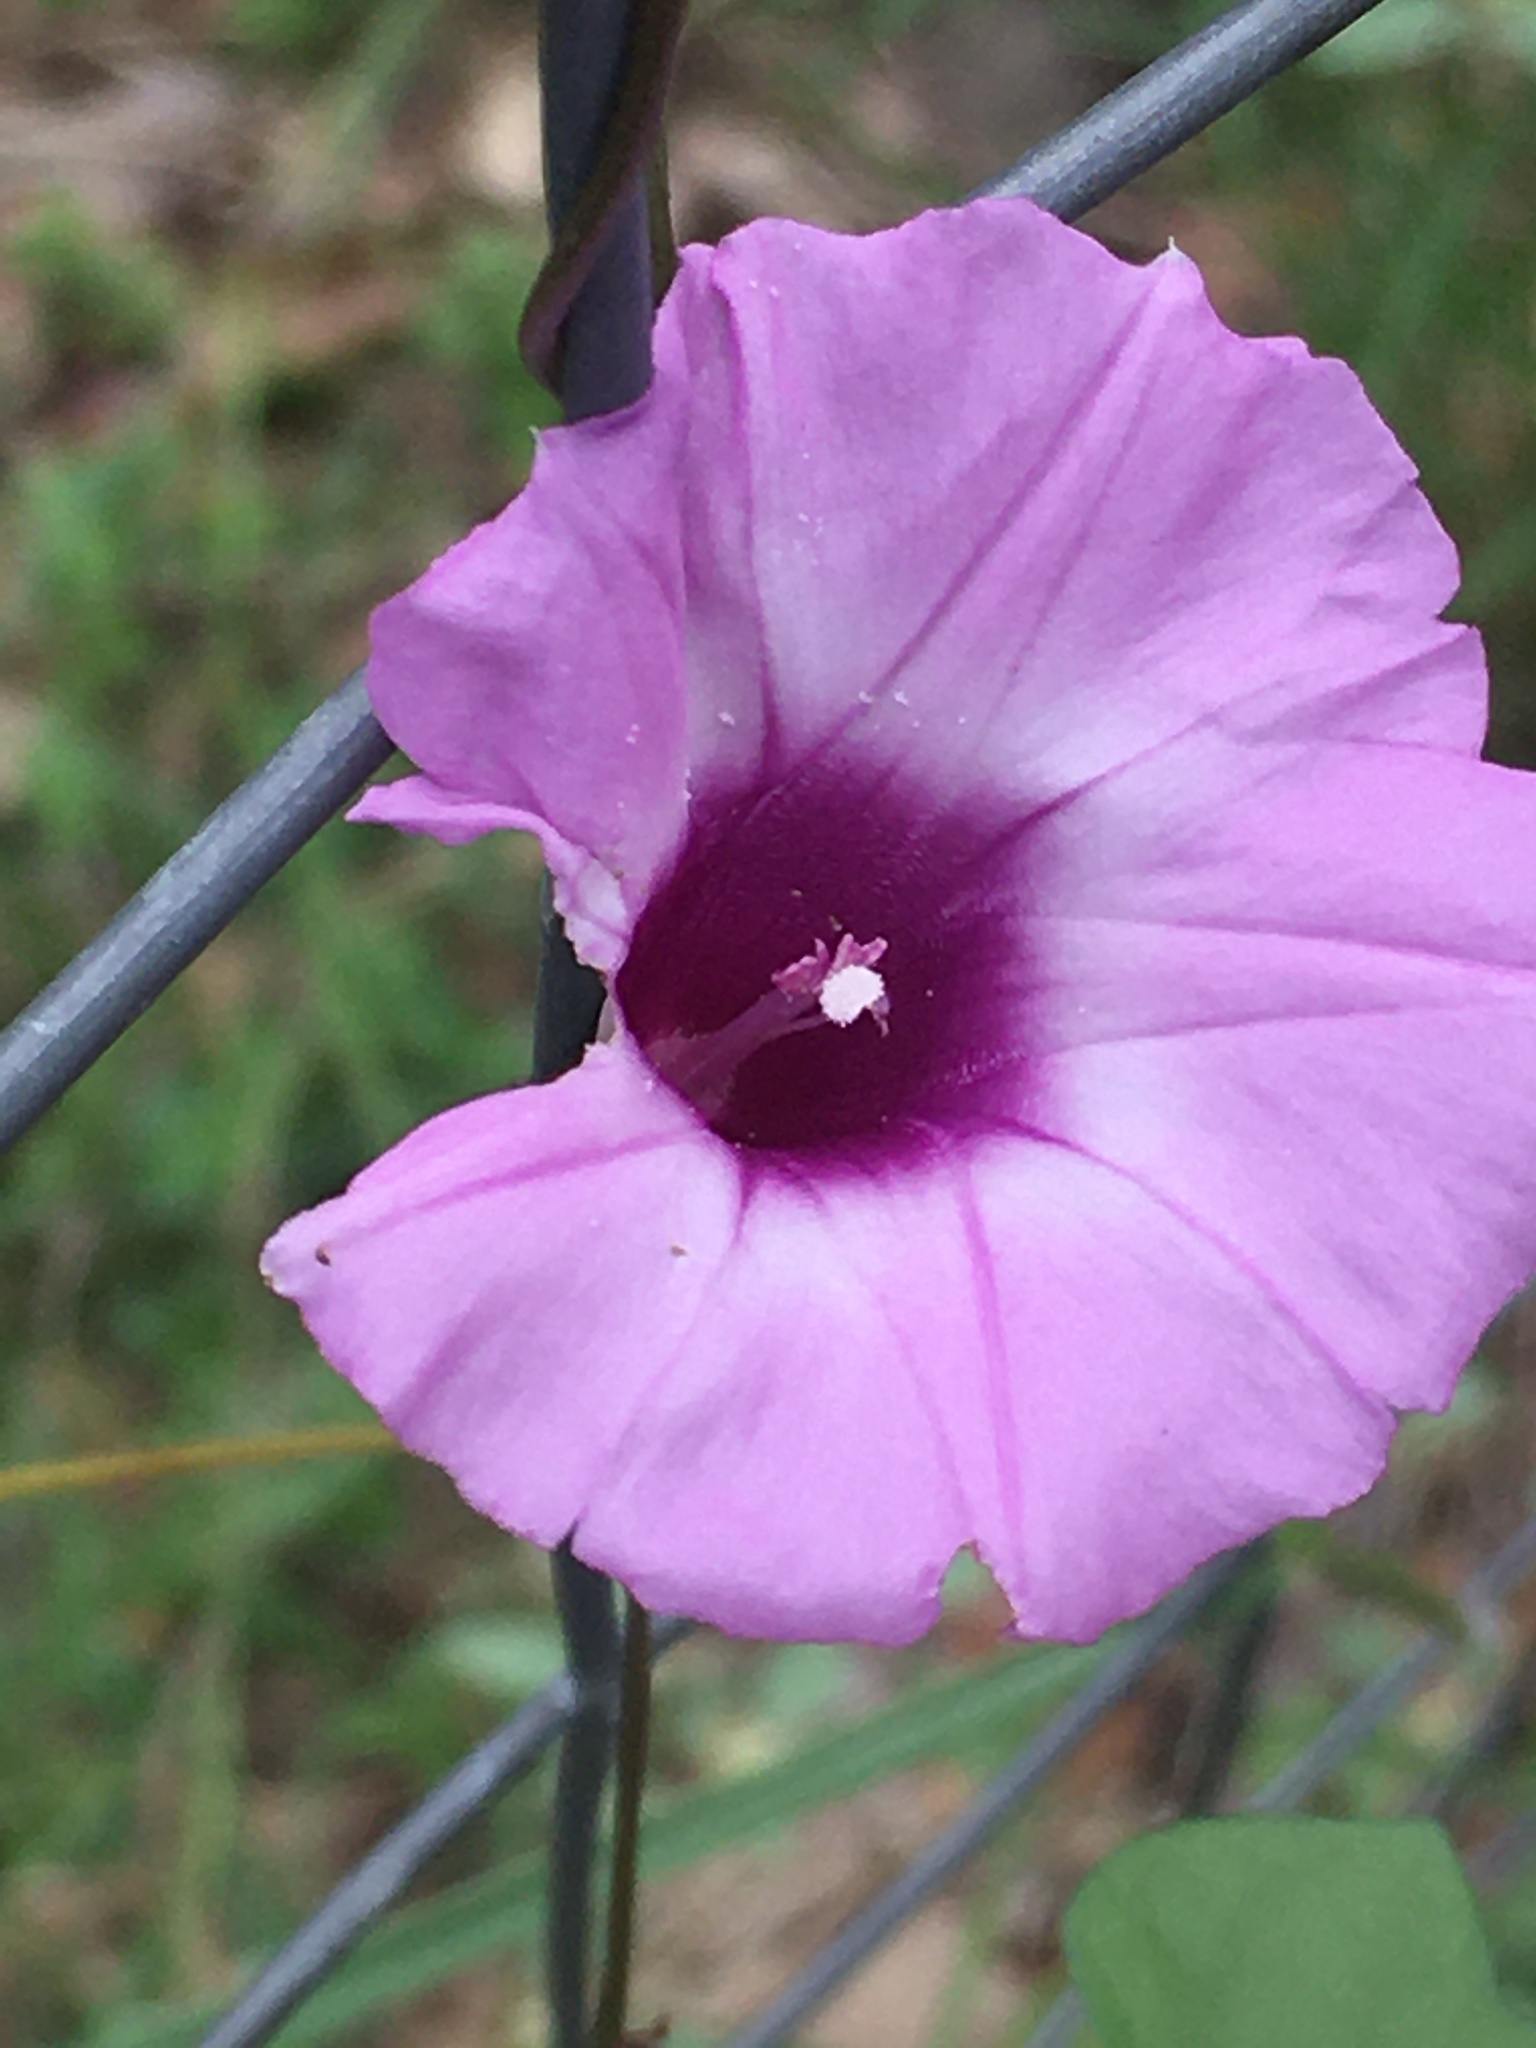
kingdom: Plantae
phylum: Tracheophyta
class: Magnoliopsida
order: Solanales
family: Convolvulaceae
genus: Ipomoea
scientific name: Ipomoea cordatotriloba
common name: Cotton morning glory
